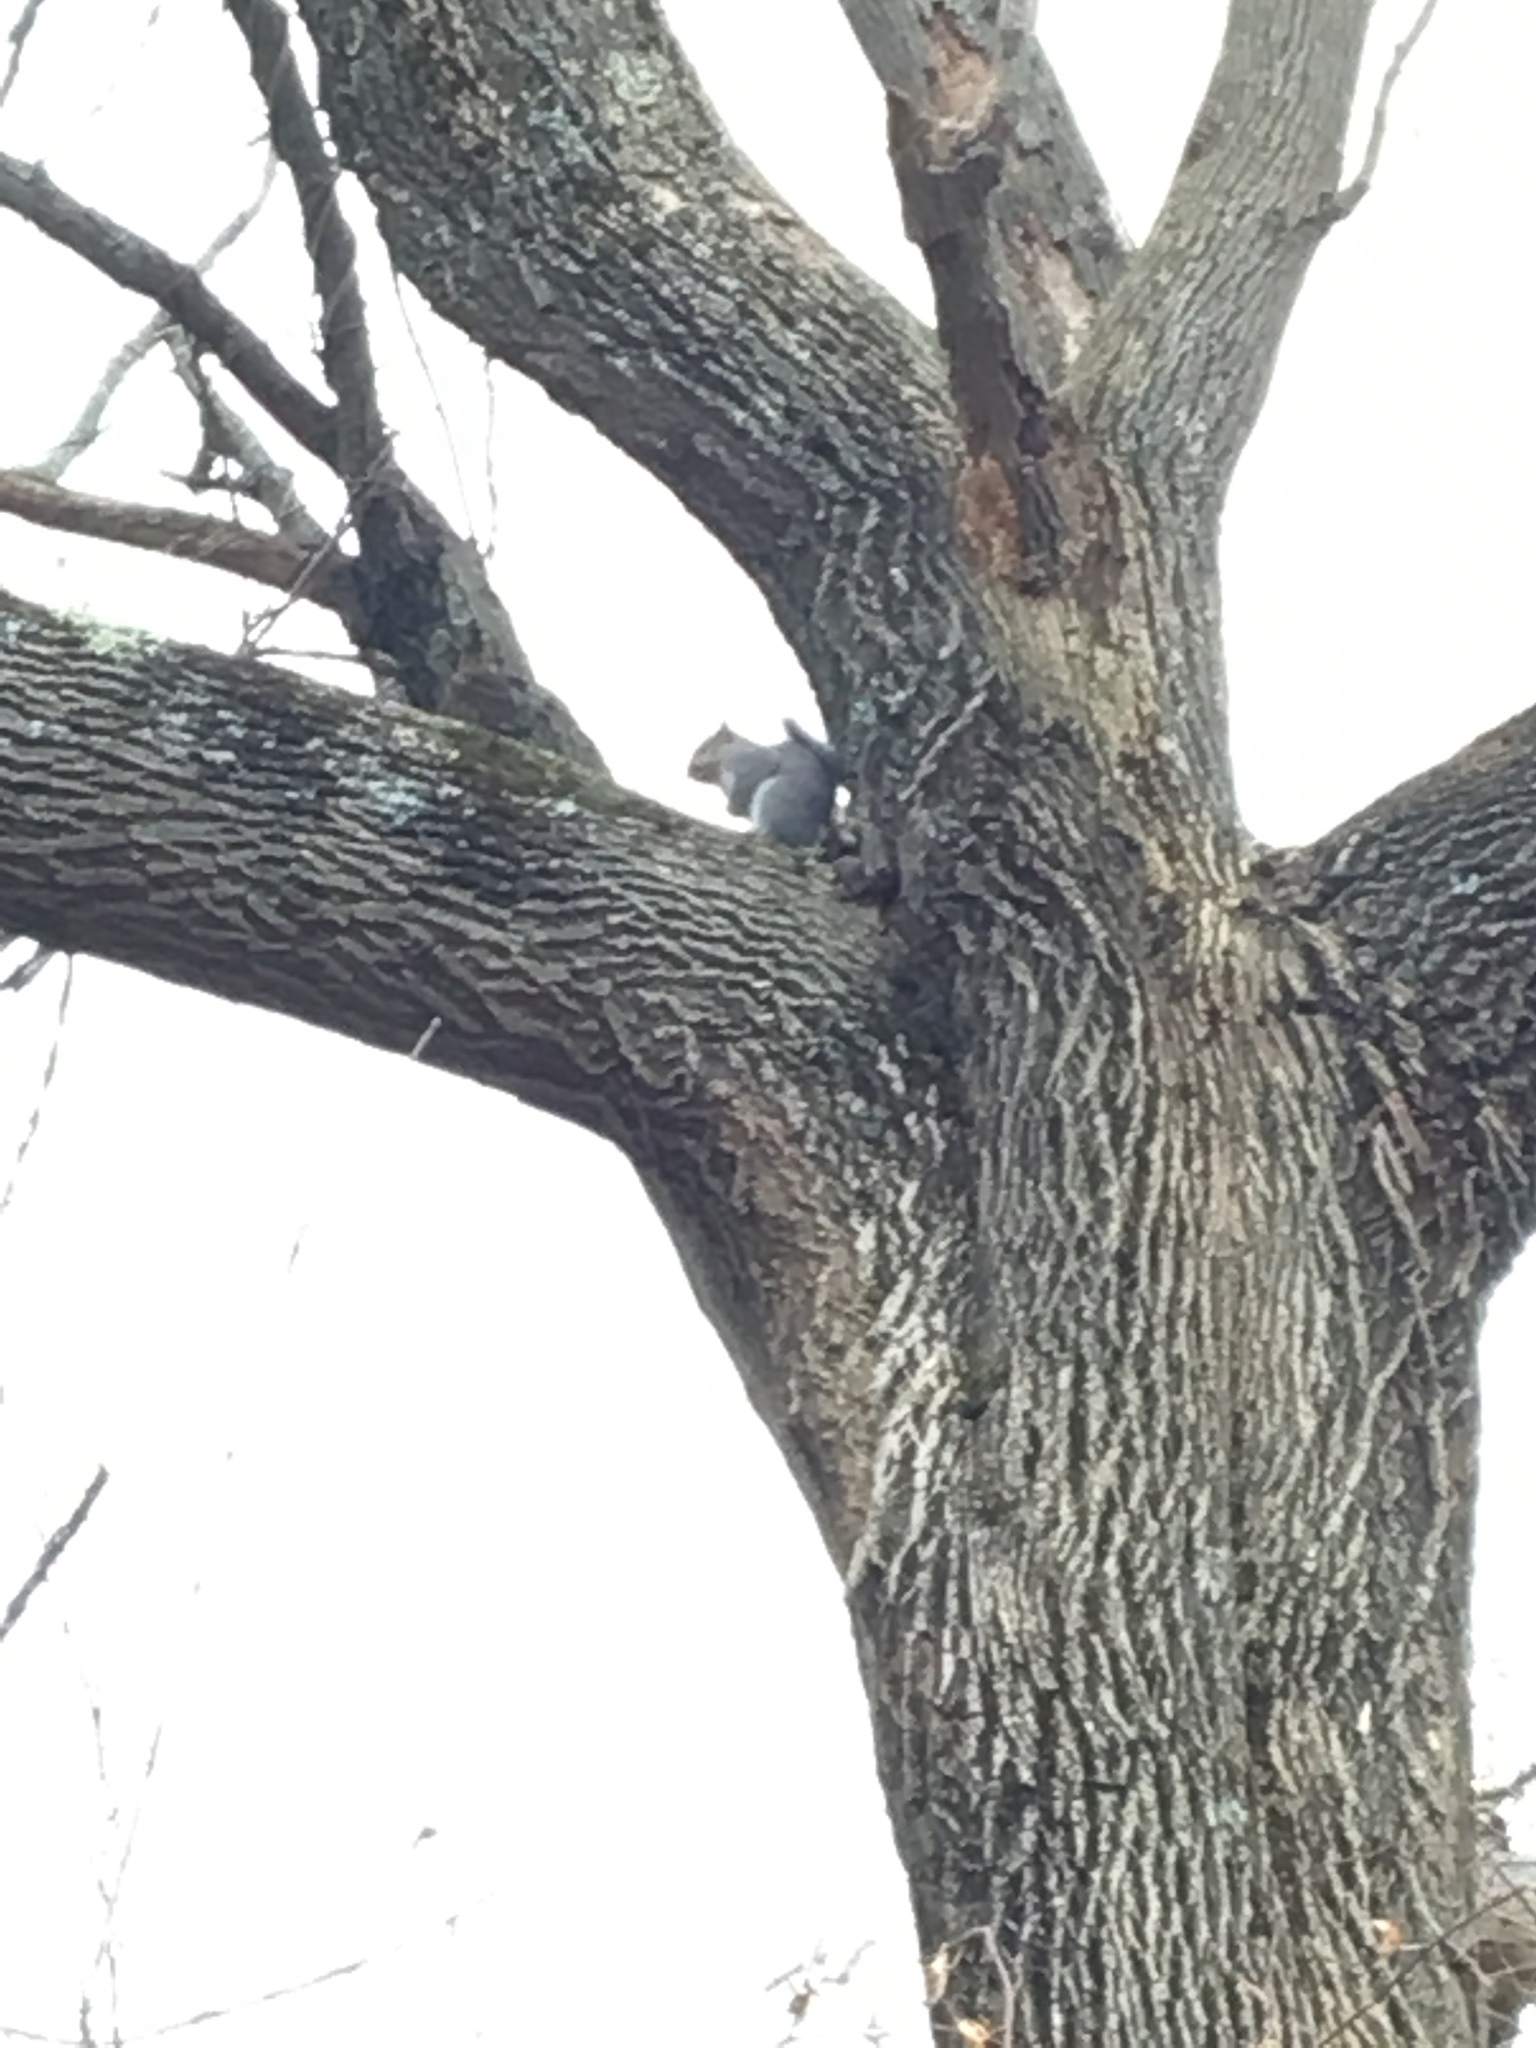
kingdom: Animalia
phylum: Chordata
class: Mammalia
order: Rodentia
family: Sciuridae
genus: Sciurus
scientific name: Sciurus carolinensis
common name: Eastern gray squirrel
